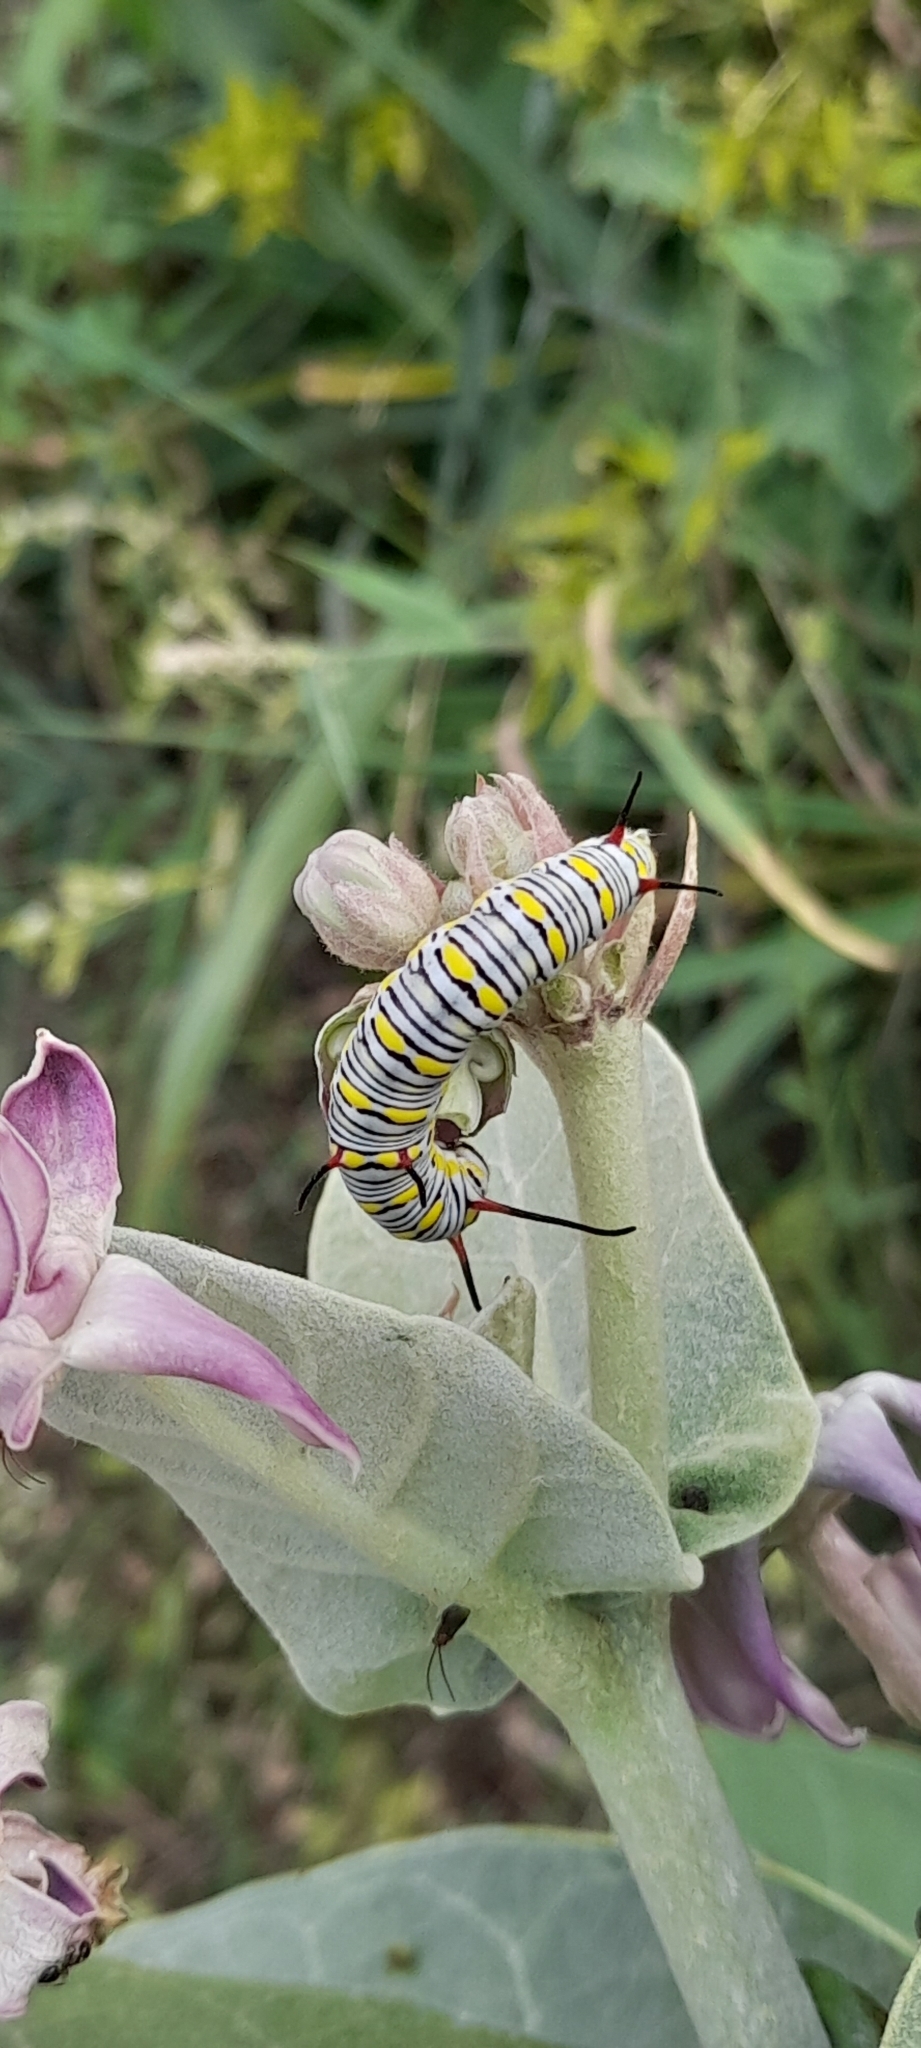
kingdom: Animalia
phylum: Arthropoda
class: Insecta
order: Lepidoptera
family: Nymphalidae
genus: Danaus
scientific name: Danaus chrysippus
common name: Plain tiger
